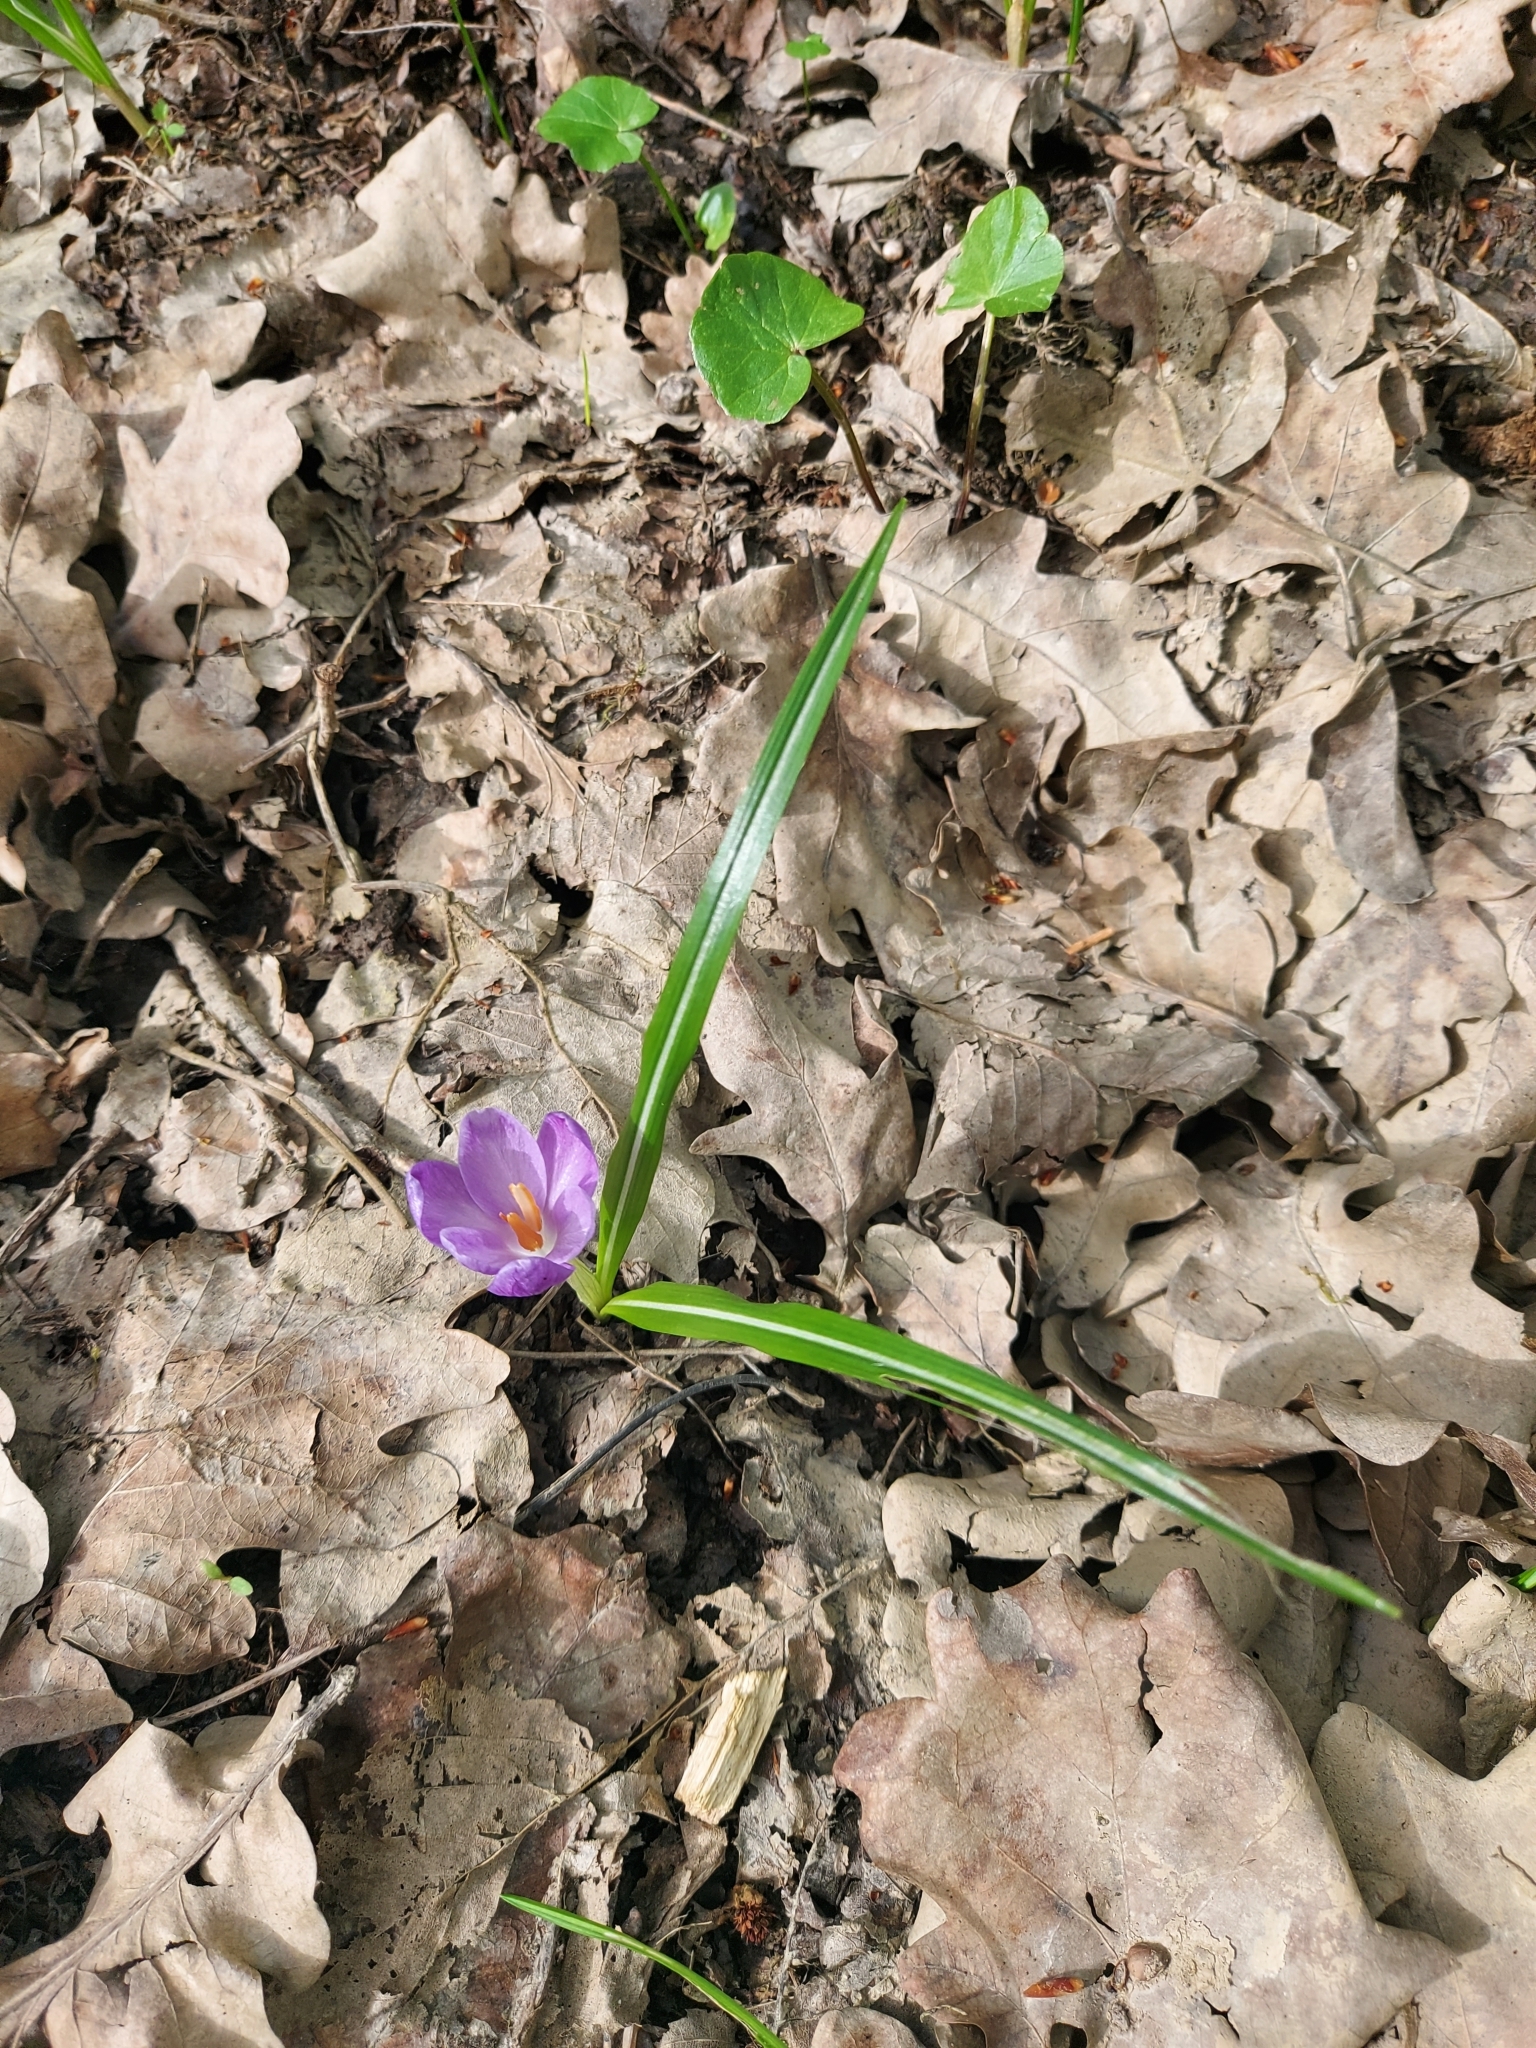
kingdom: Plantae
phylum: Tracheophyta
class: Liliopsida
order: Asparagales
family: Iridaceae
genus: Crocus
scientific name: Crocus heuffelianus
